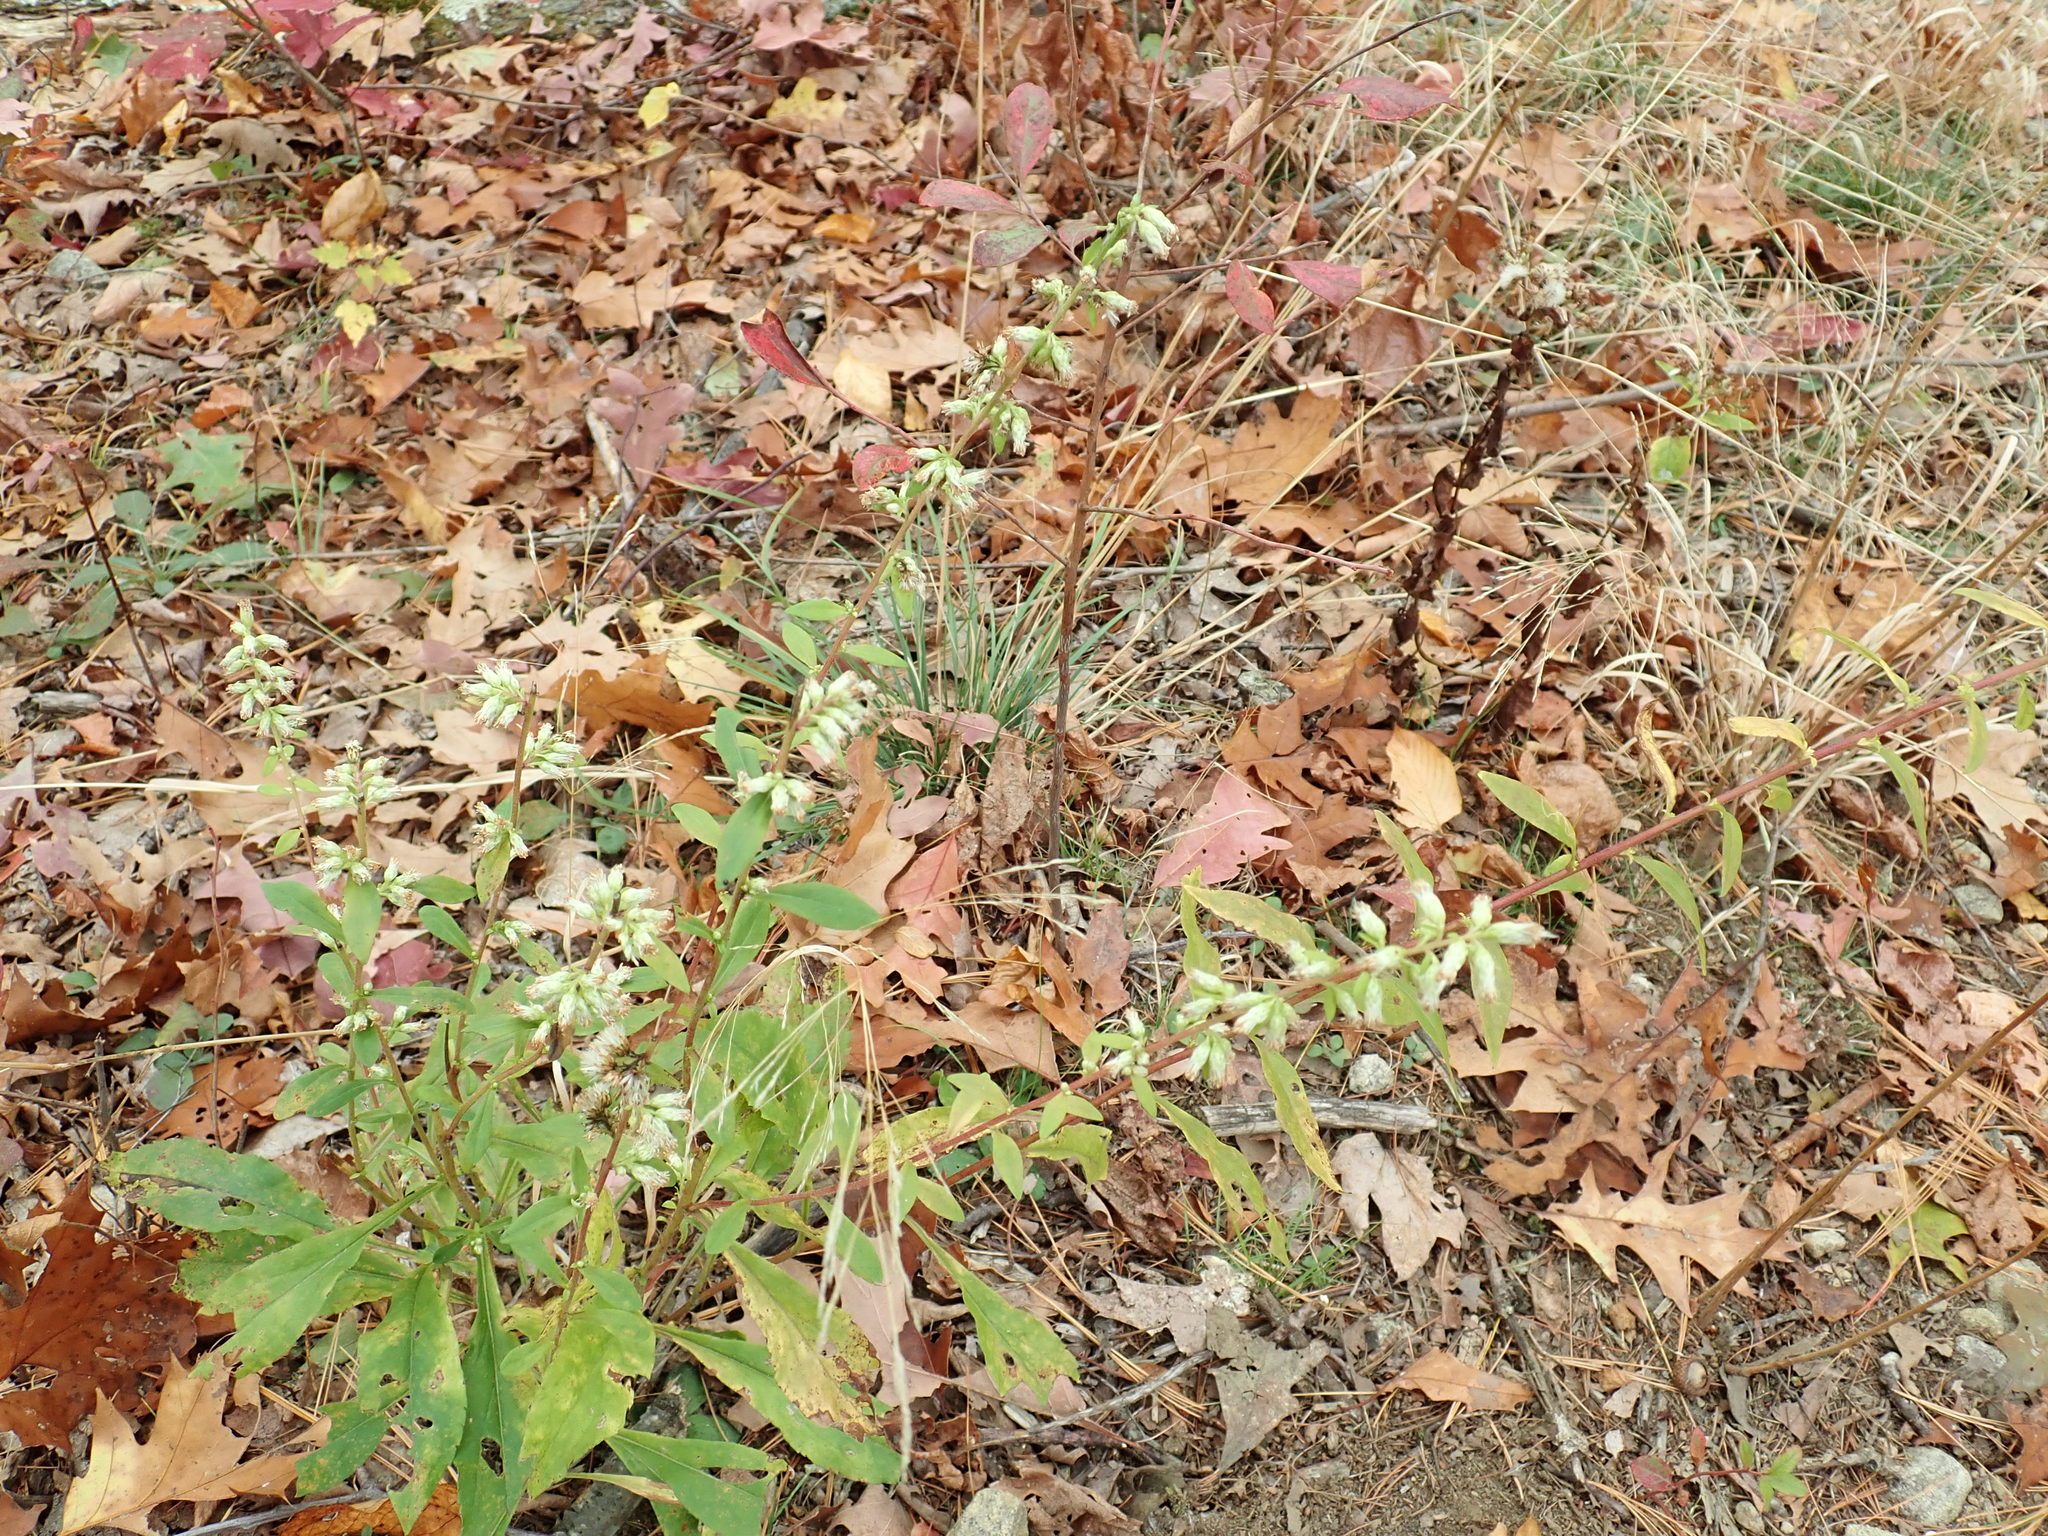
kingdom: Plantae
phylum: Tracheophyta
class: Magnoliopsida
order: Asterales
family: Asteraceae
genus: Solidago
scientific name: Solidago bicolor
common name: Silverrod
